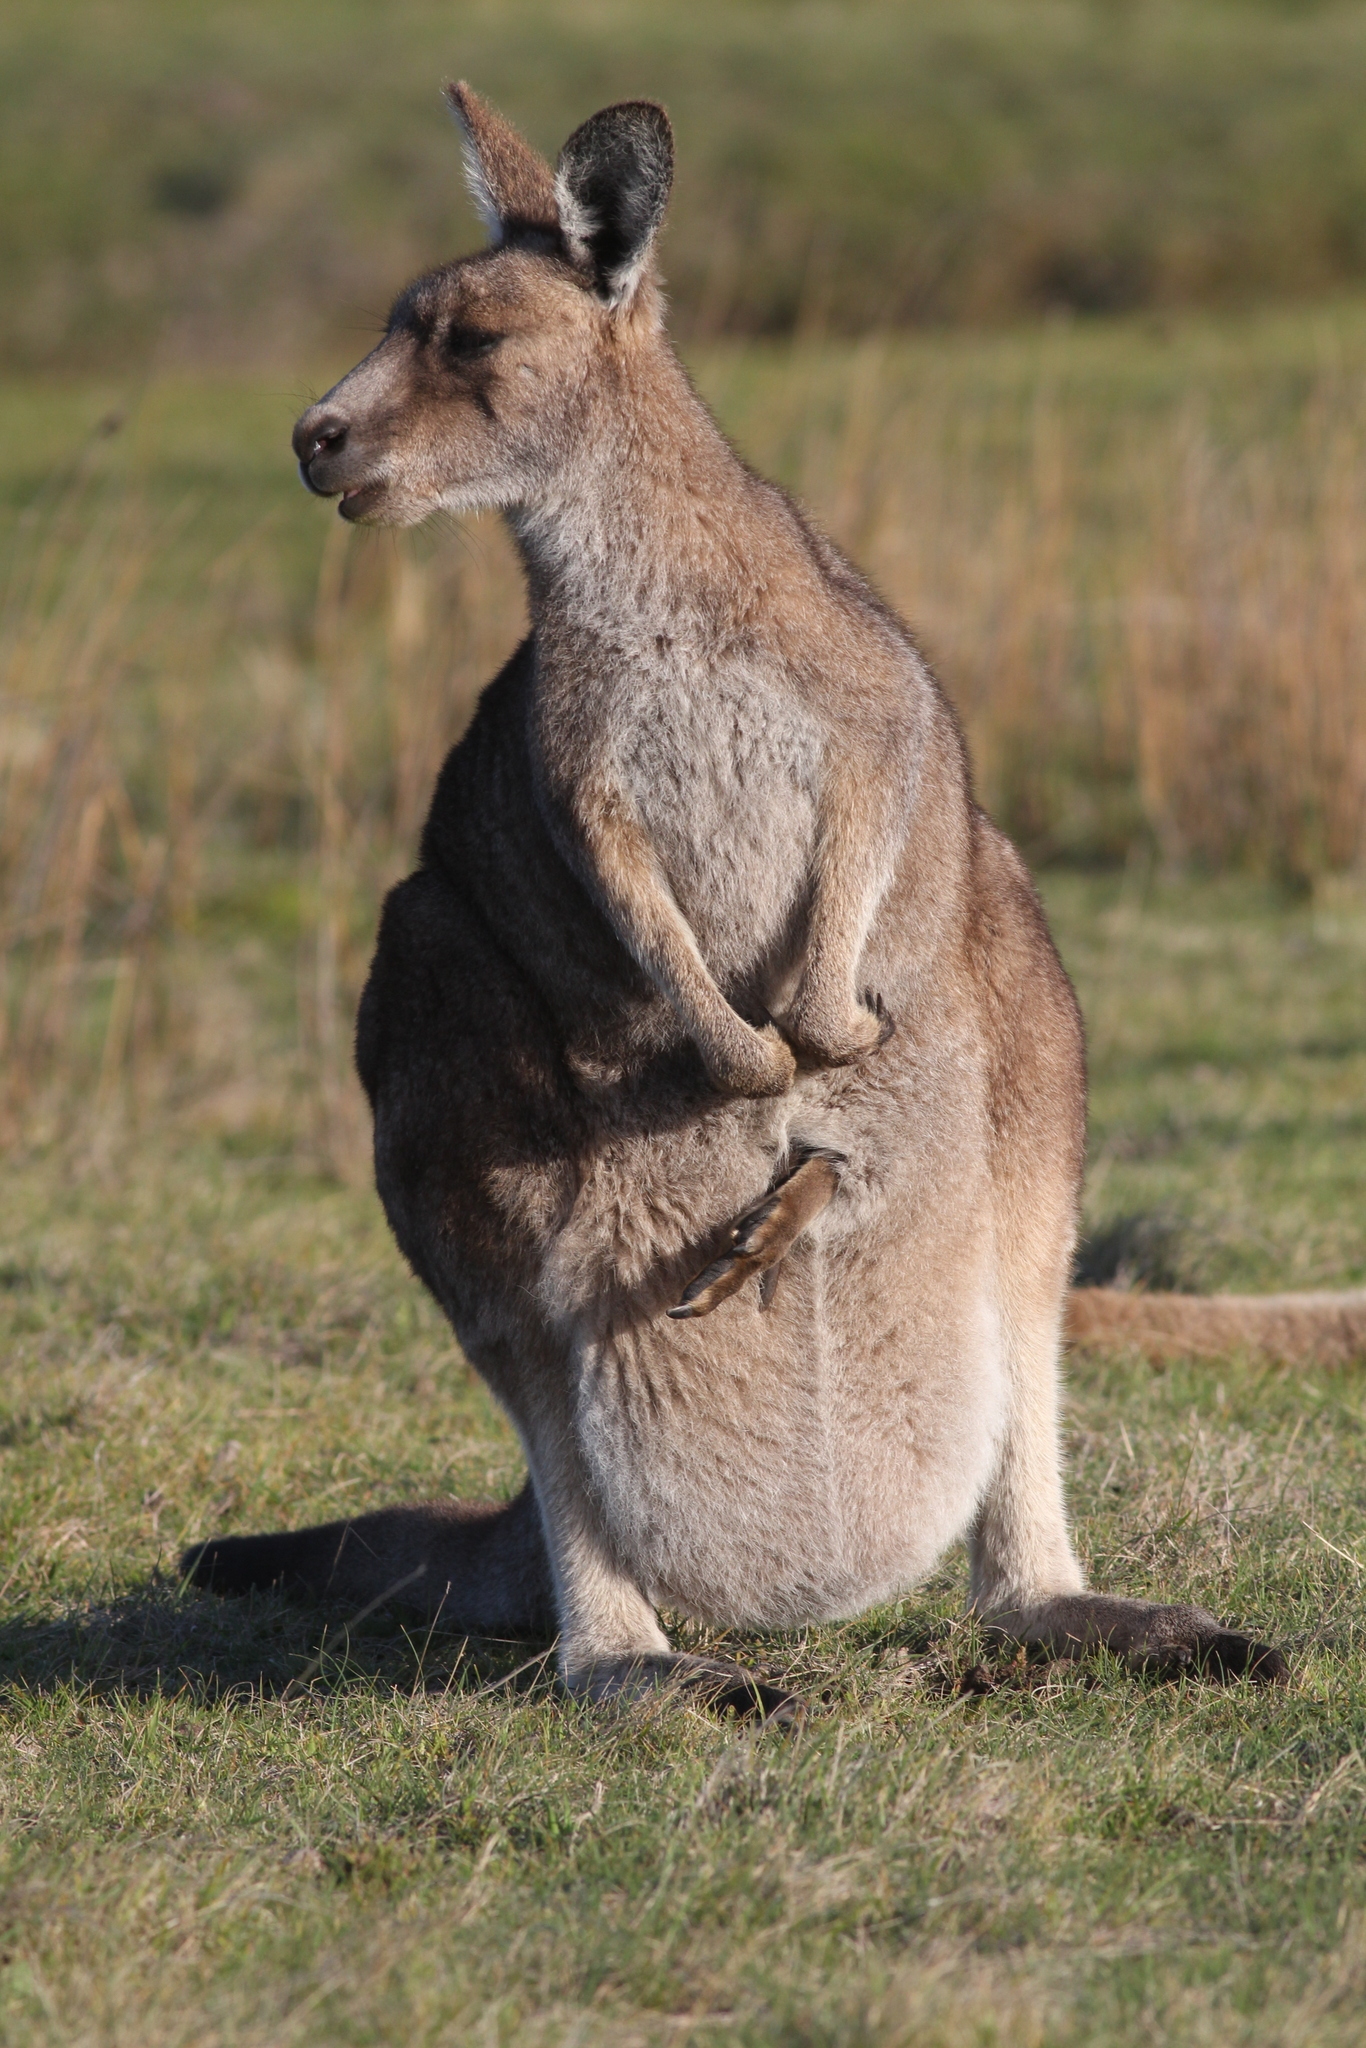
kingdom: Animalia
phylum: Chordata
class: Mammalia
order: Diprotodontia
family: Macropodidae
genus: Macropus
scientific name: Macropus giganteus
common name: Eastern grey kangaroo
